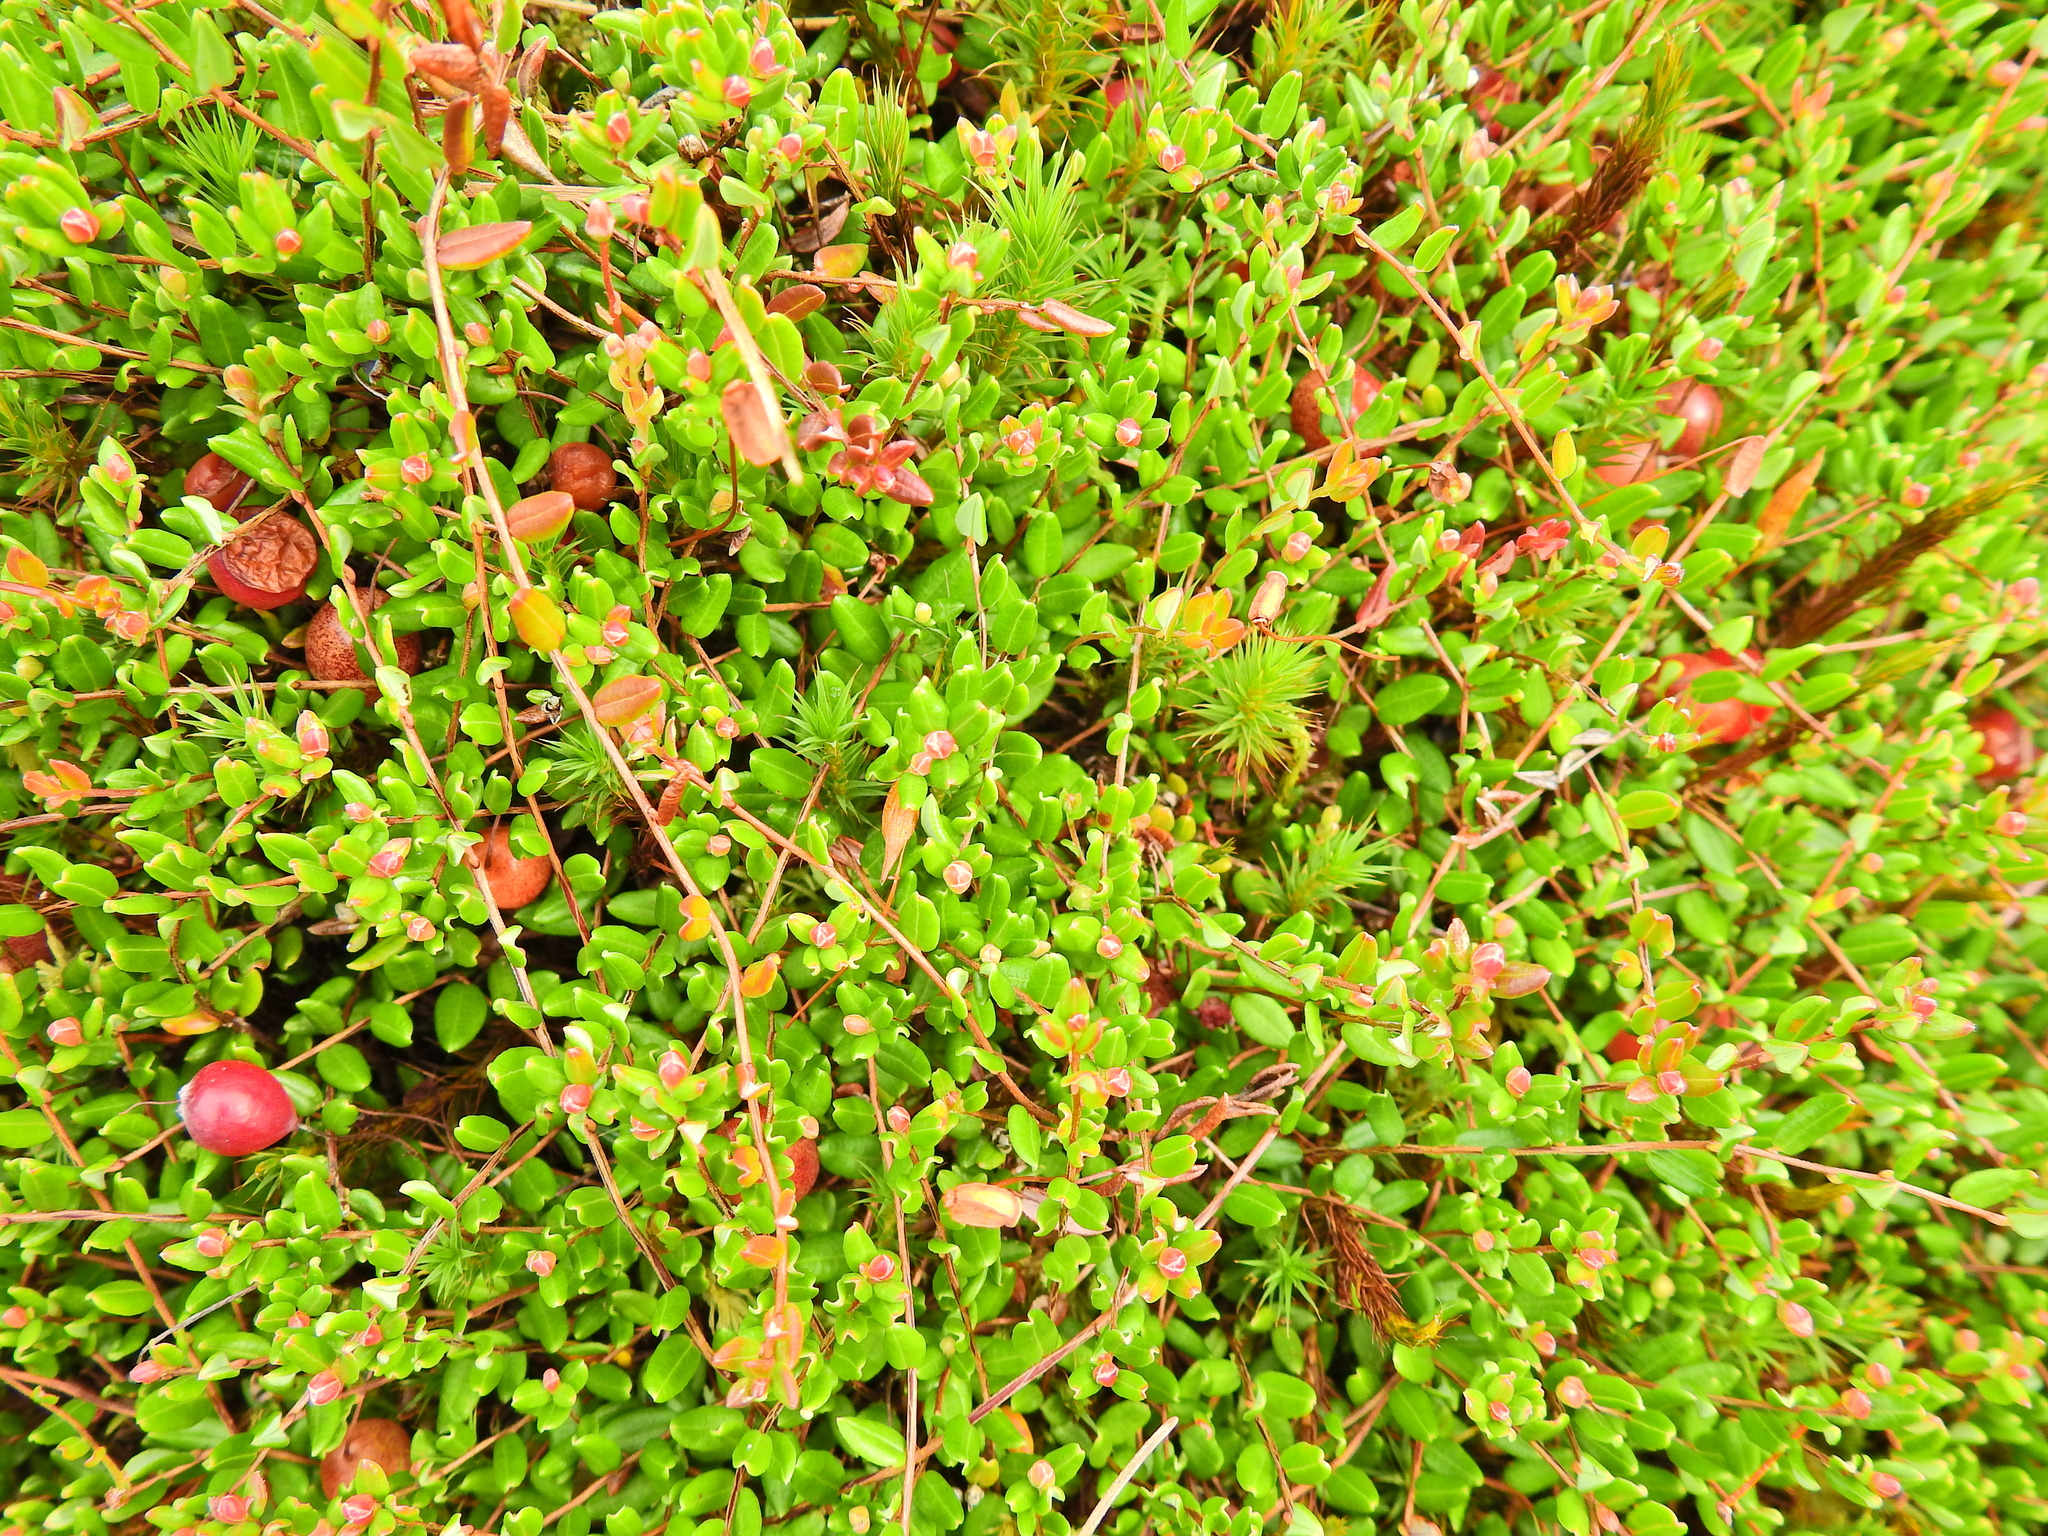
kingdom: Plantae
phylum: Tracheophyta
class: Magnoliopsida
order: Ericales
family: Ericaceae
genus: Vaccinium
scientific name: Vaccinium oxycoccos
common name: Cranberry
